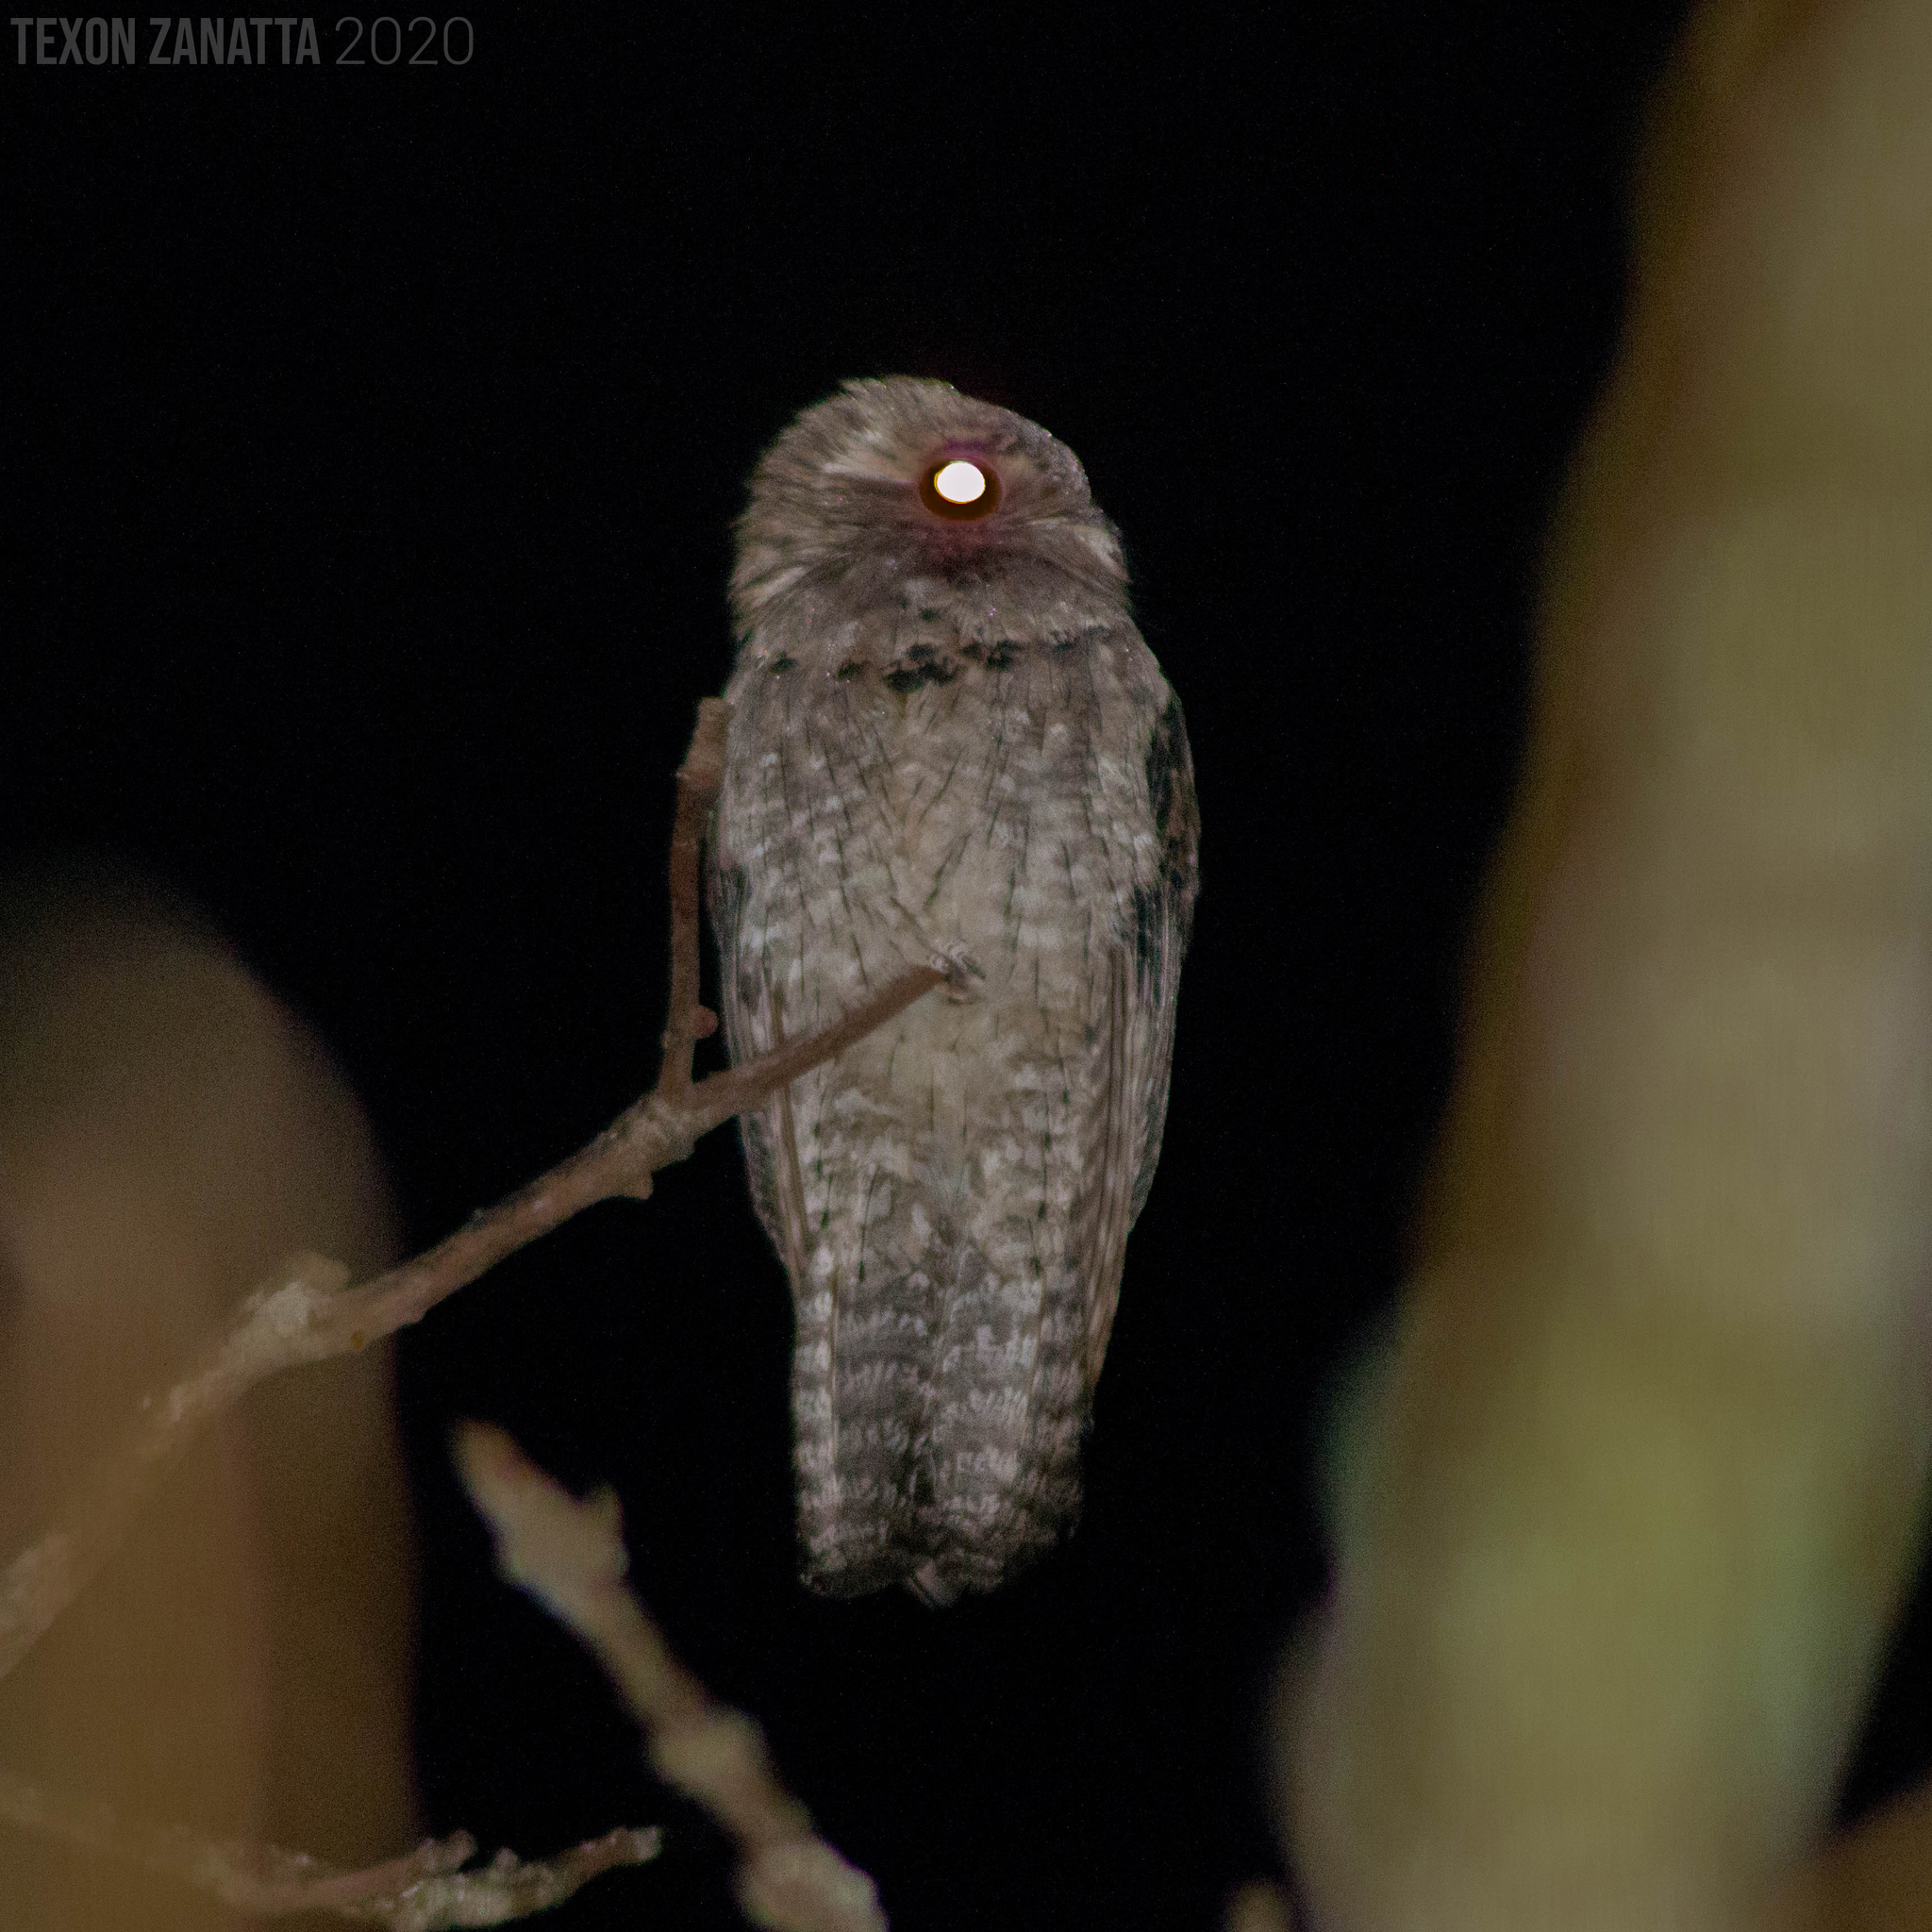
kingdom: Animalia
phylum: Chordata
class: Aves
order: Nyctibiiformes
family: Nyctibiidae
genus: Nyctibius
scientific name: Nyctibius jamaicensis
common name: Northern potoo
